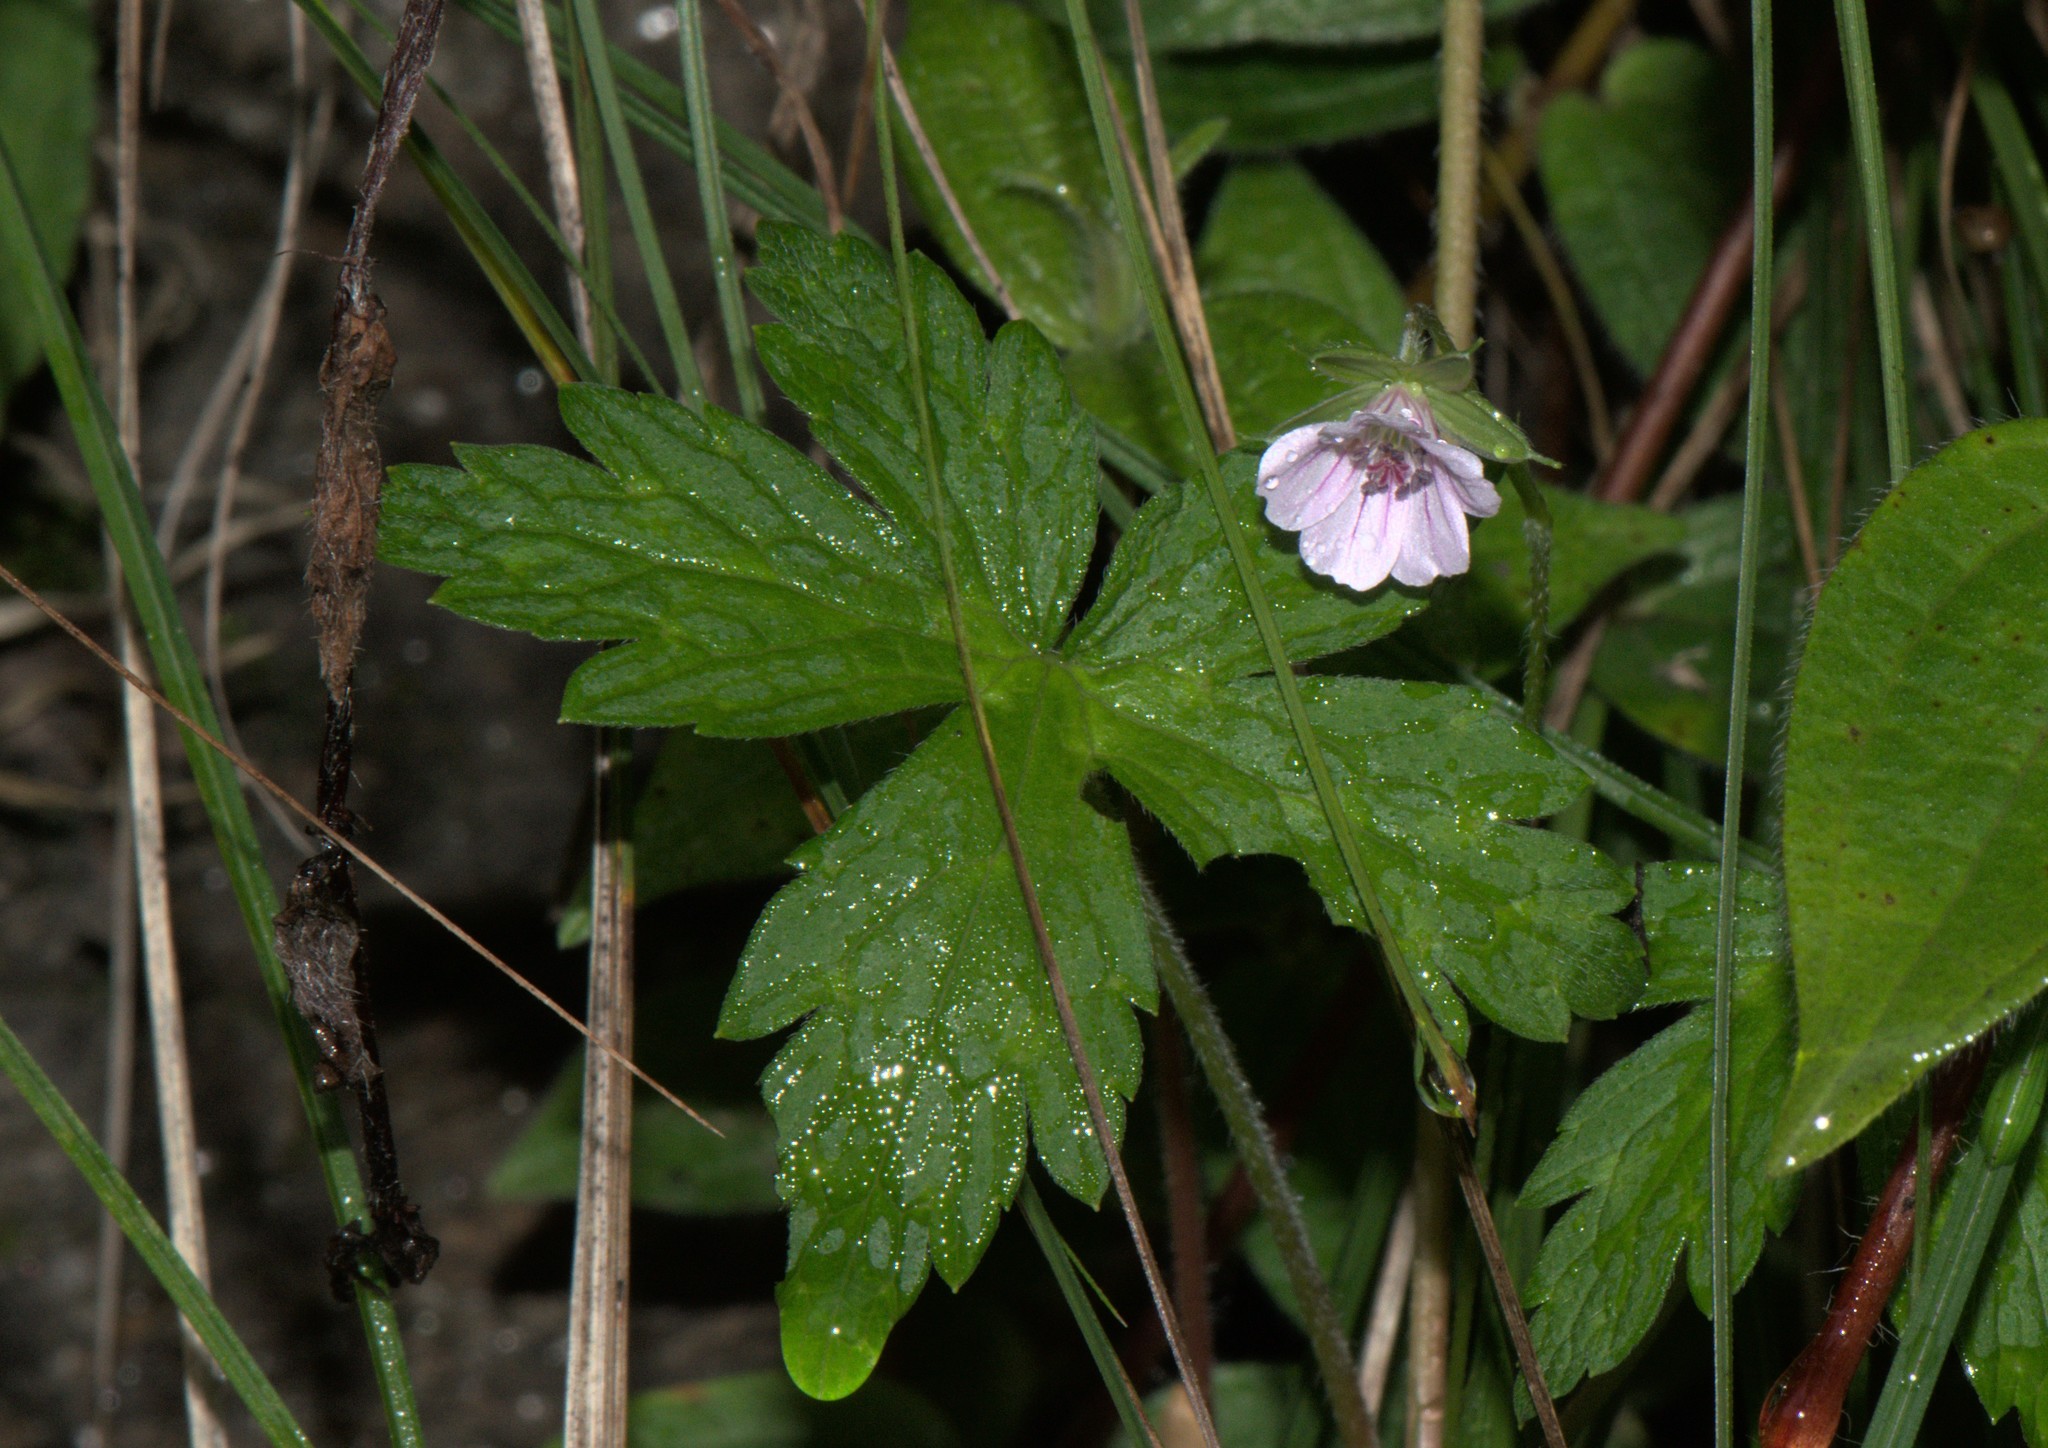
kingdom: Plantae
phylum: Tracheophyta
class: Magnoliopsida
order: Geraniales
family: Geraniaceae
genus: Geranium
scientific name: Geranium nepalense
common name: Nepalese crane's-bill
